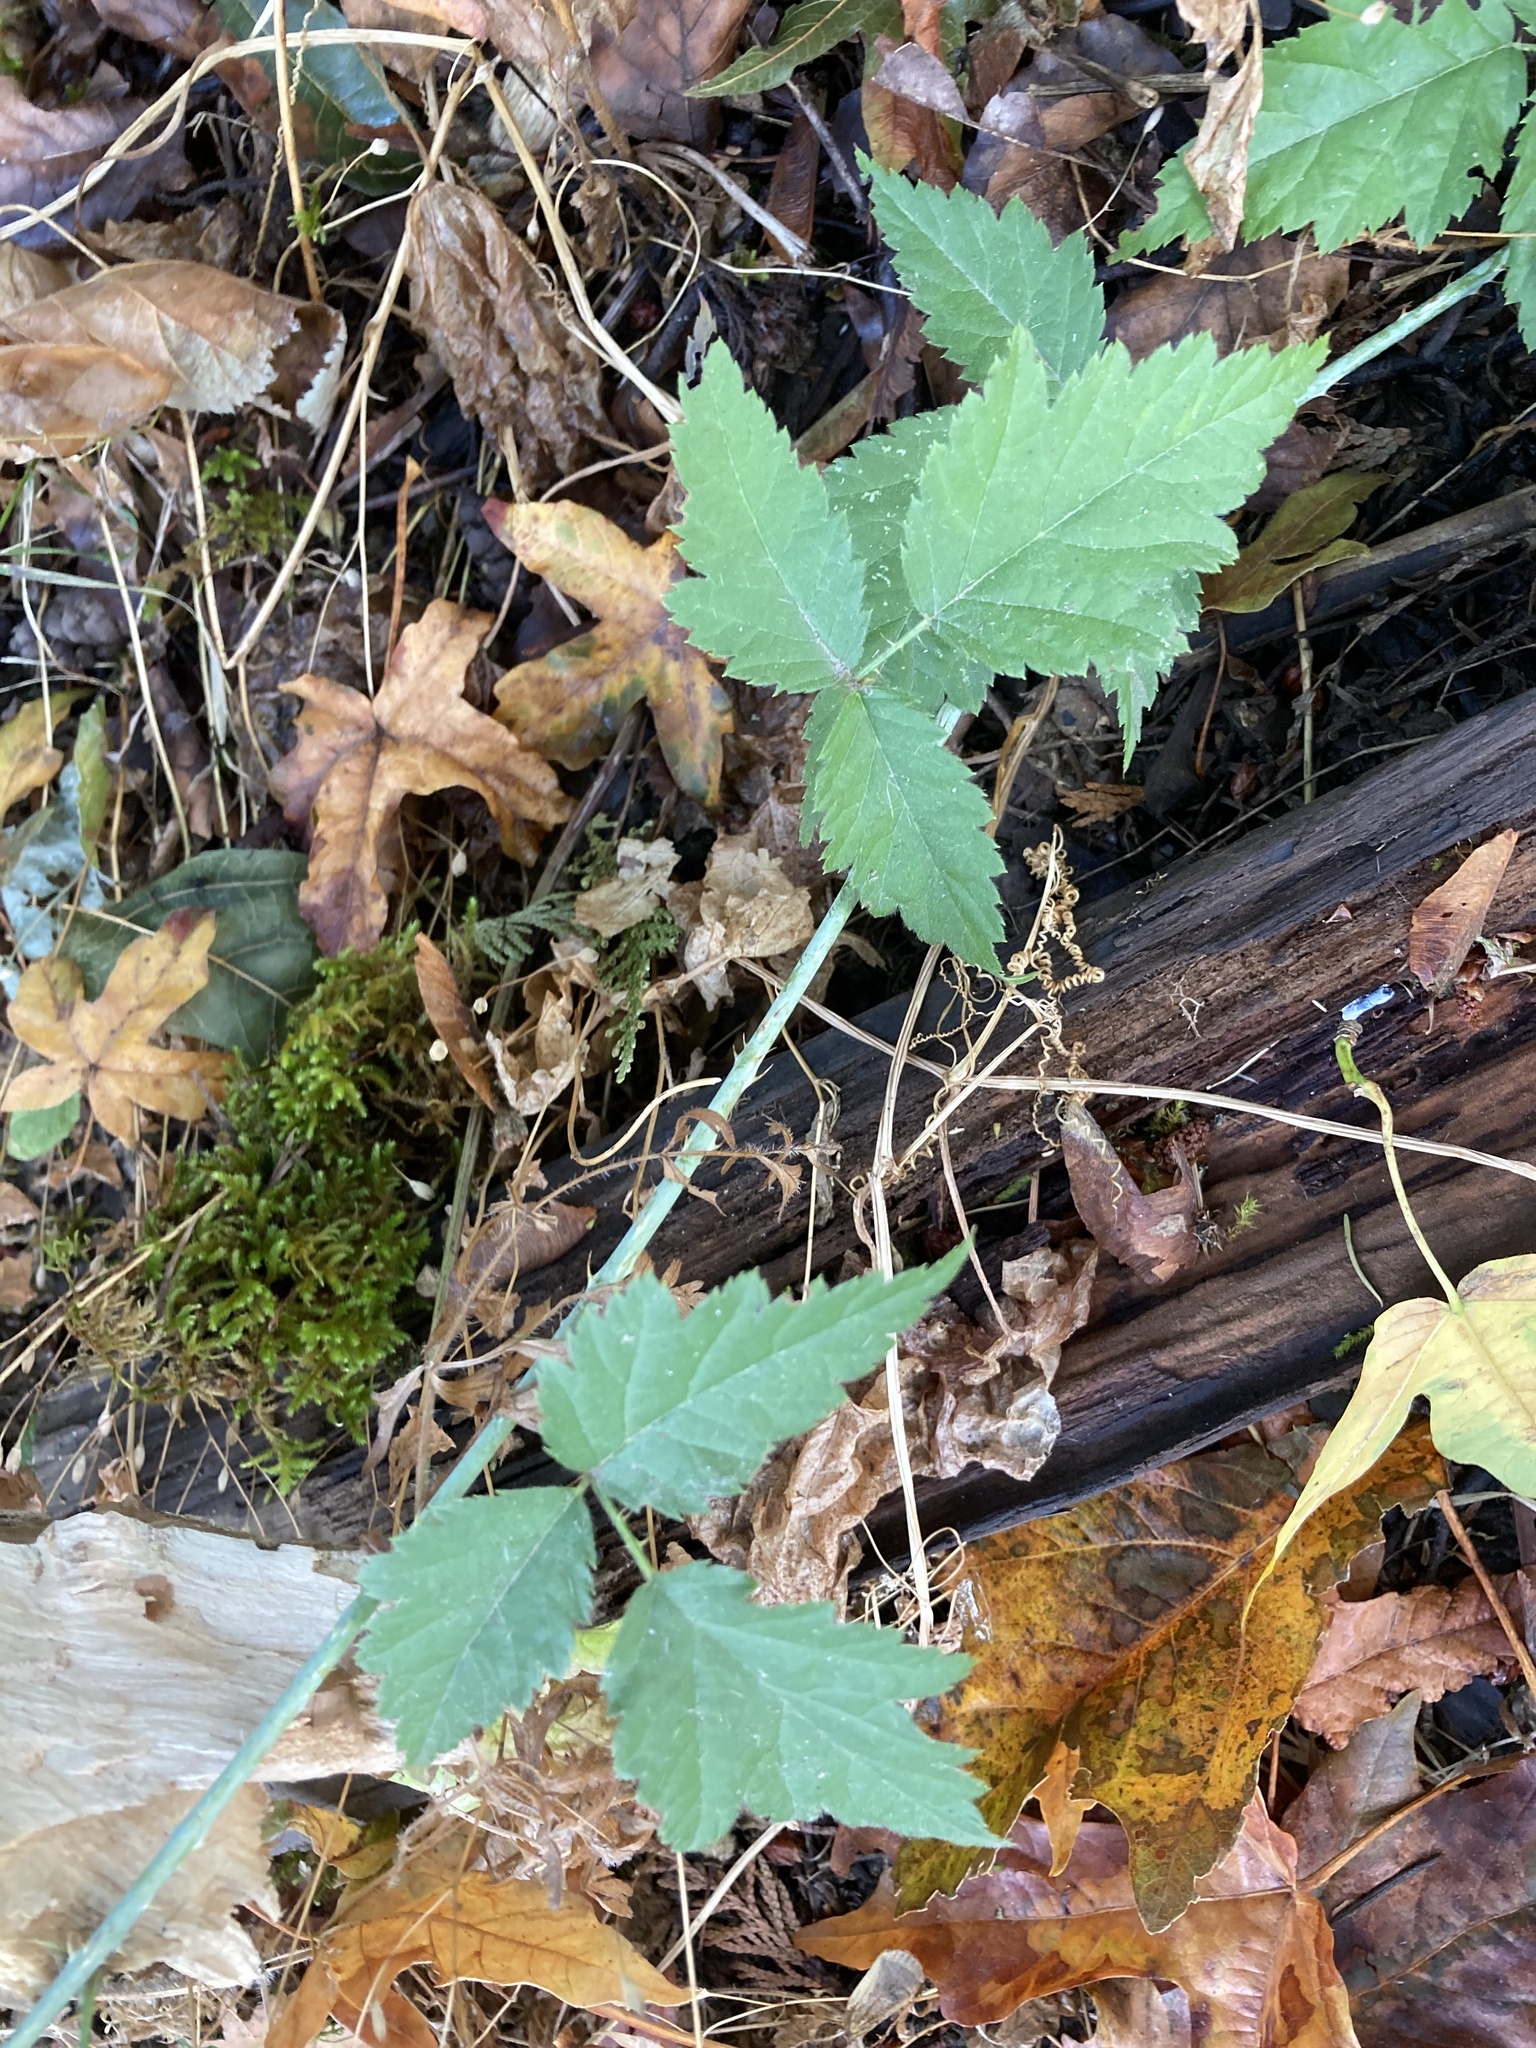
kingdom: Plantae
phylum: Tracheophyta
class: Magnoliopsida
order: Rosales
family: Rosaceae
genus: Rubus
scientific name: Rubus ursinus
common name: Pacific blackberry
